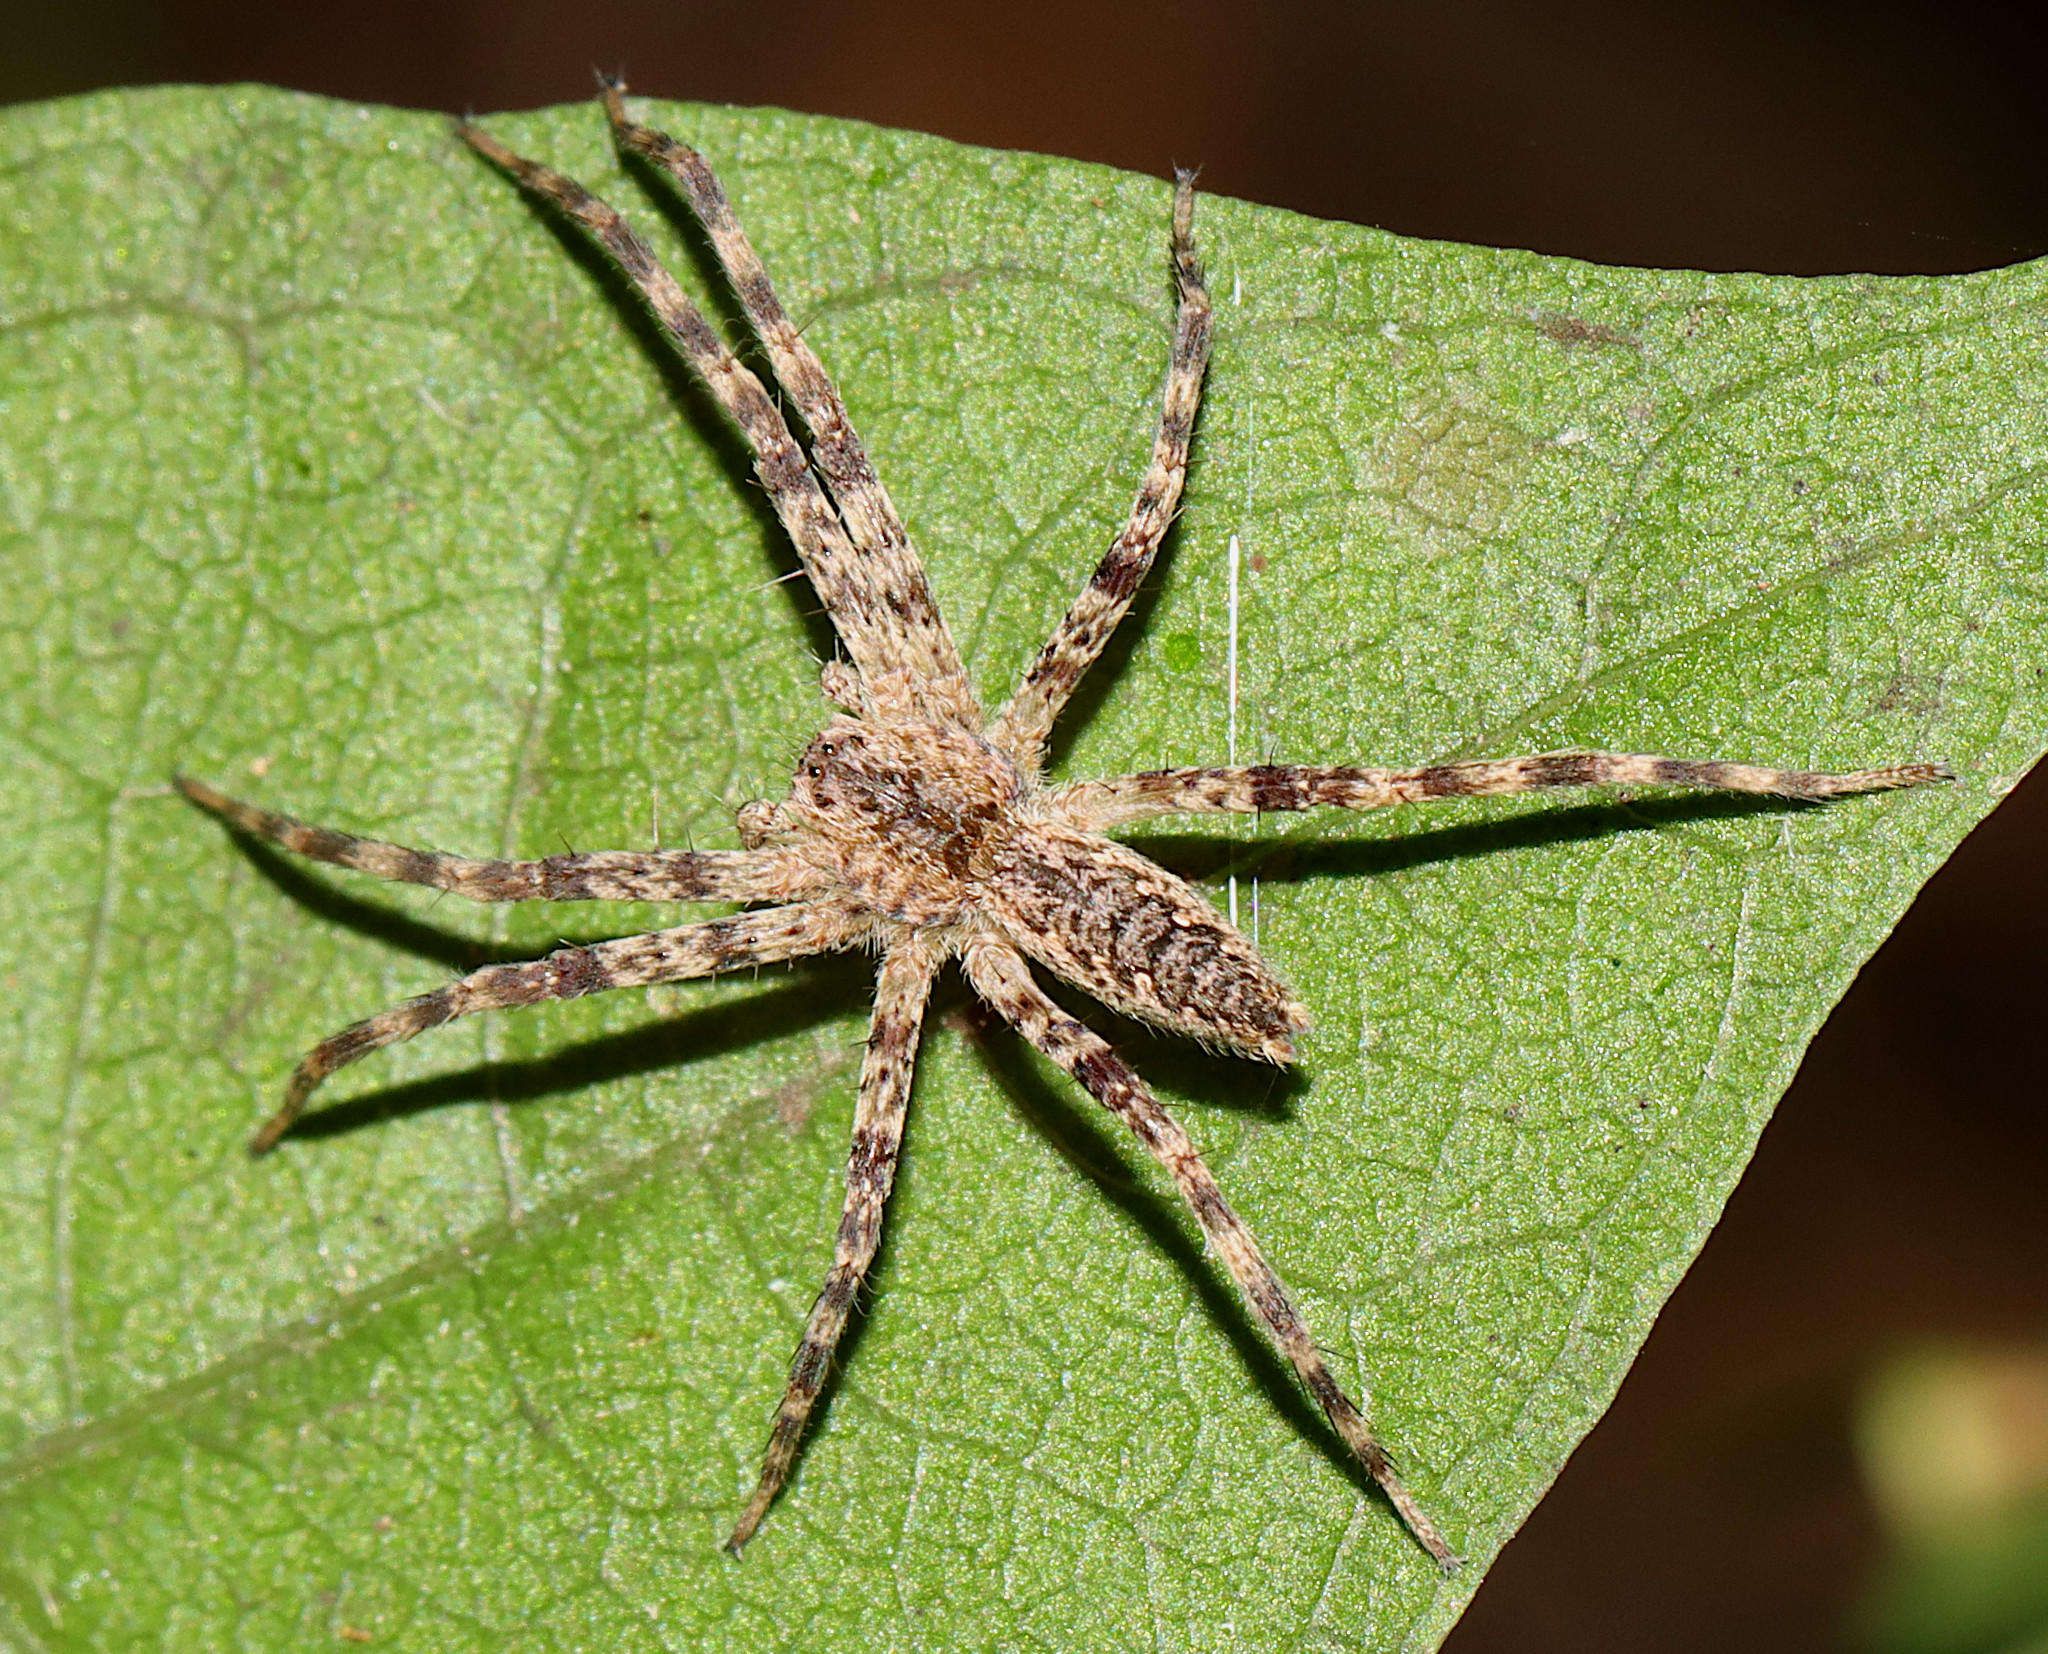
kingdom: Animalia
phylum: Arthropoda
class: Arachnida
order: Araneae
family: Pisauridae
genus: Pisaurina
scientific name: Pisaurina mira
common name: American nursery web spider
